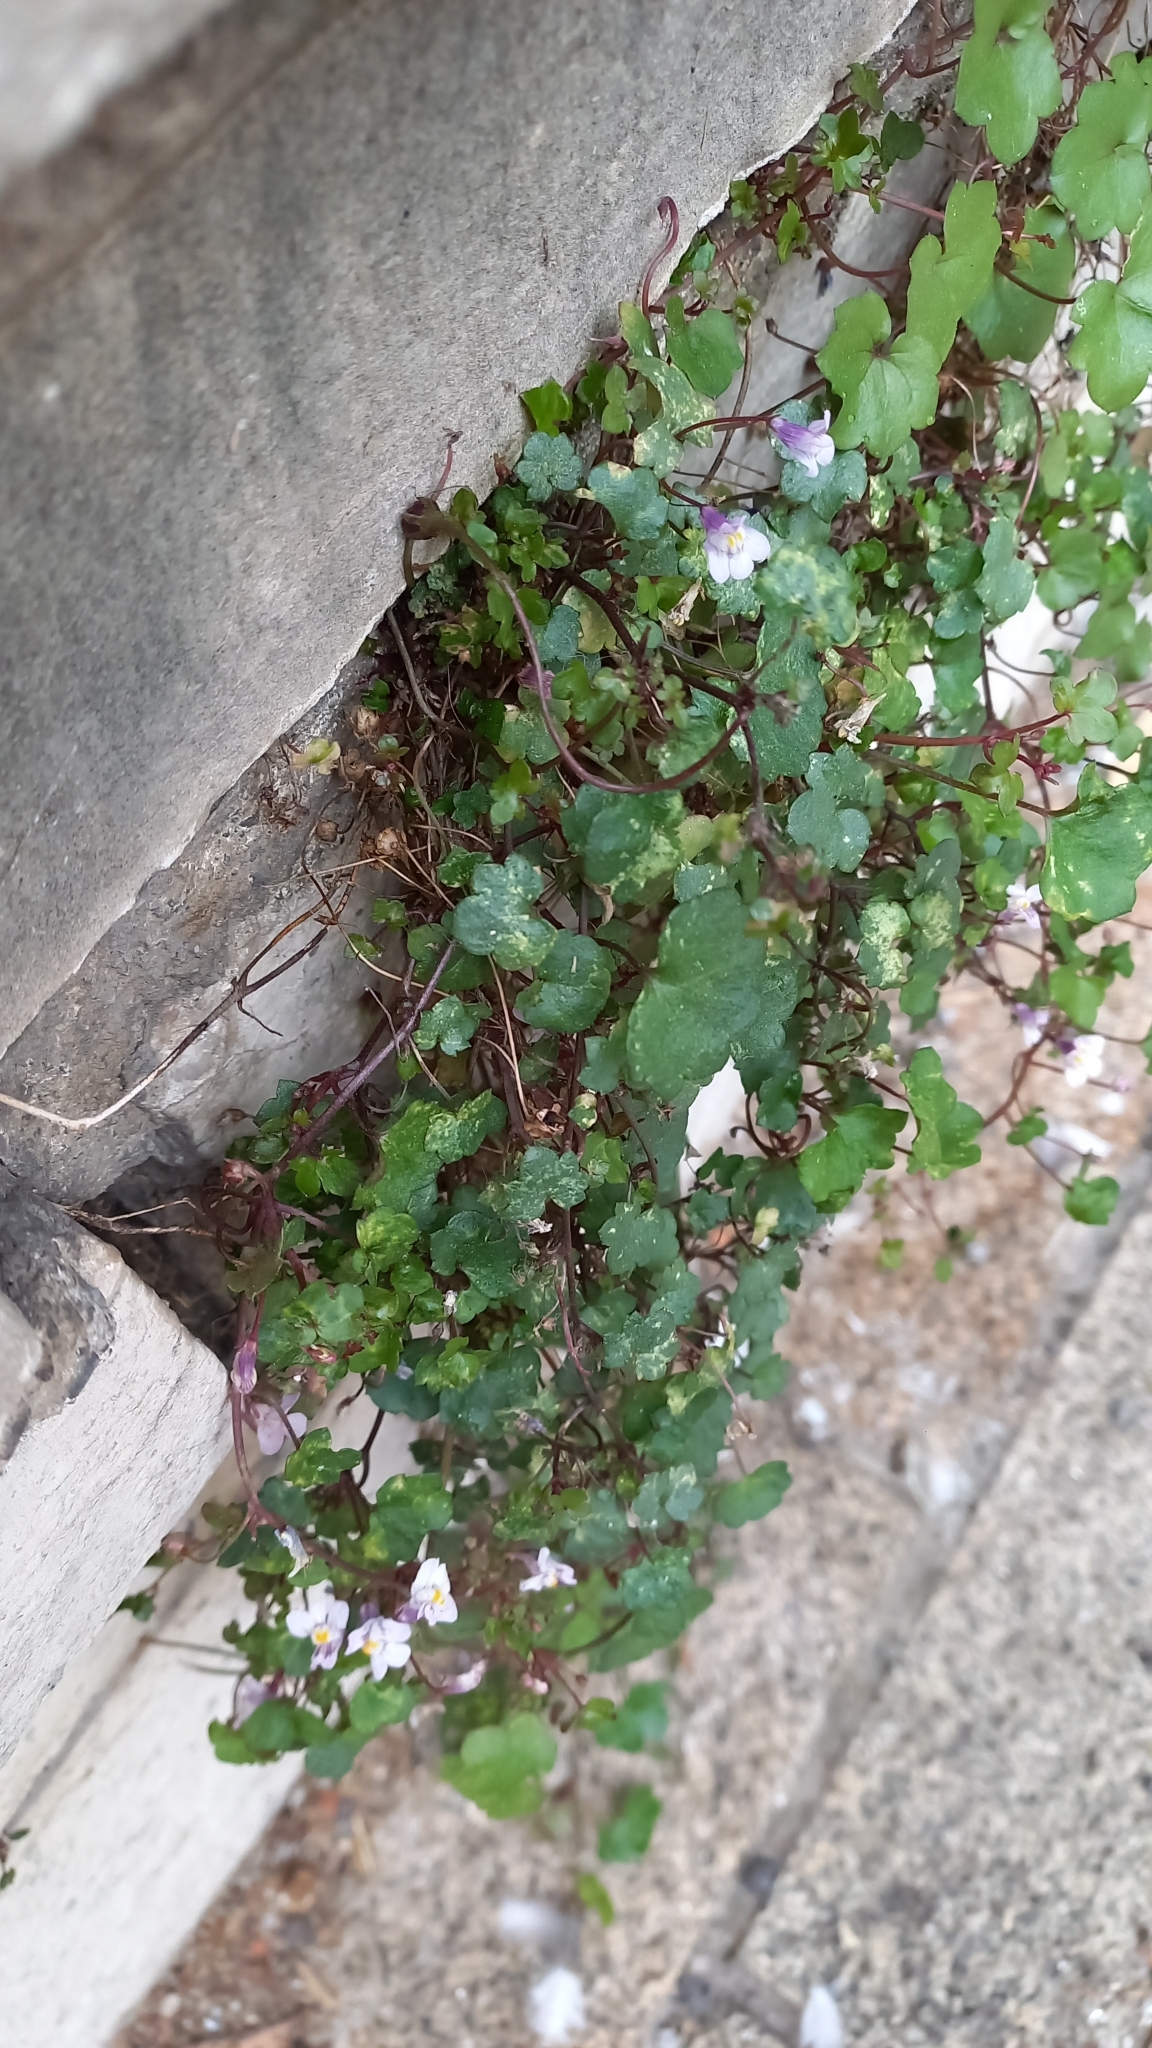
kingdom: Plantae
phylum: Tracheophyta
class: Magnoliopsida
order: Lamiales
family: Plantaginaceae
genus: Cymbalaria
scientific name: Cymbalaria muralis
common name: Ivy-leaved toadflax
